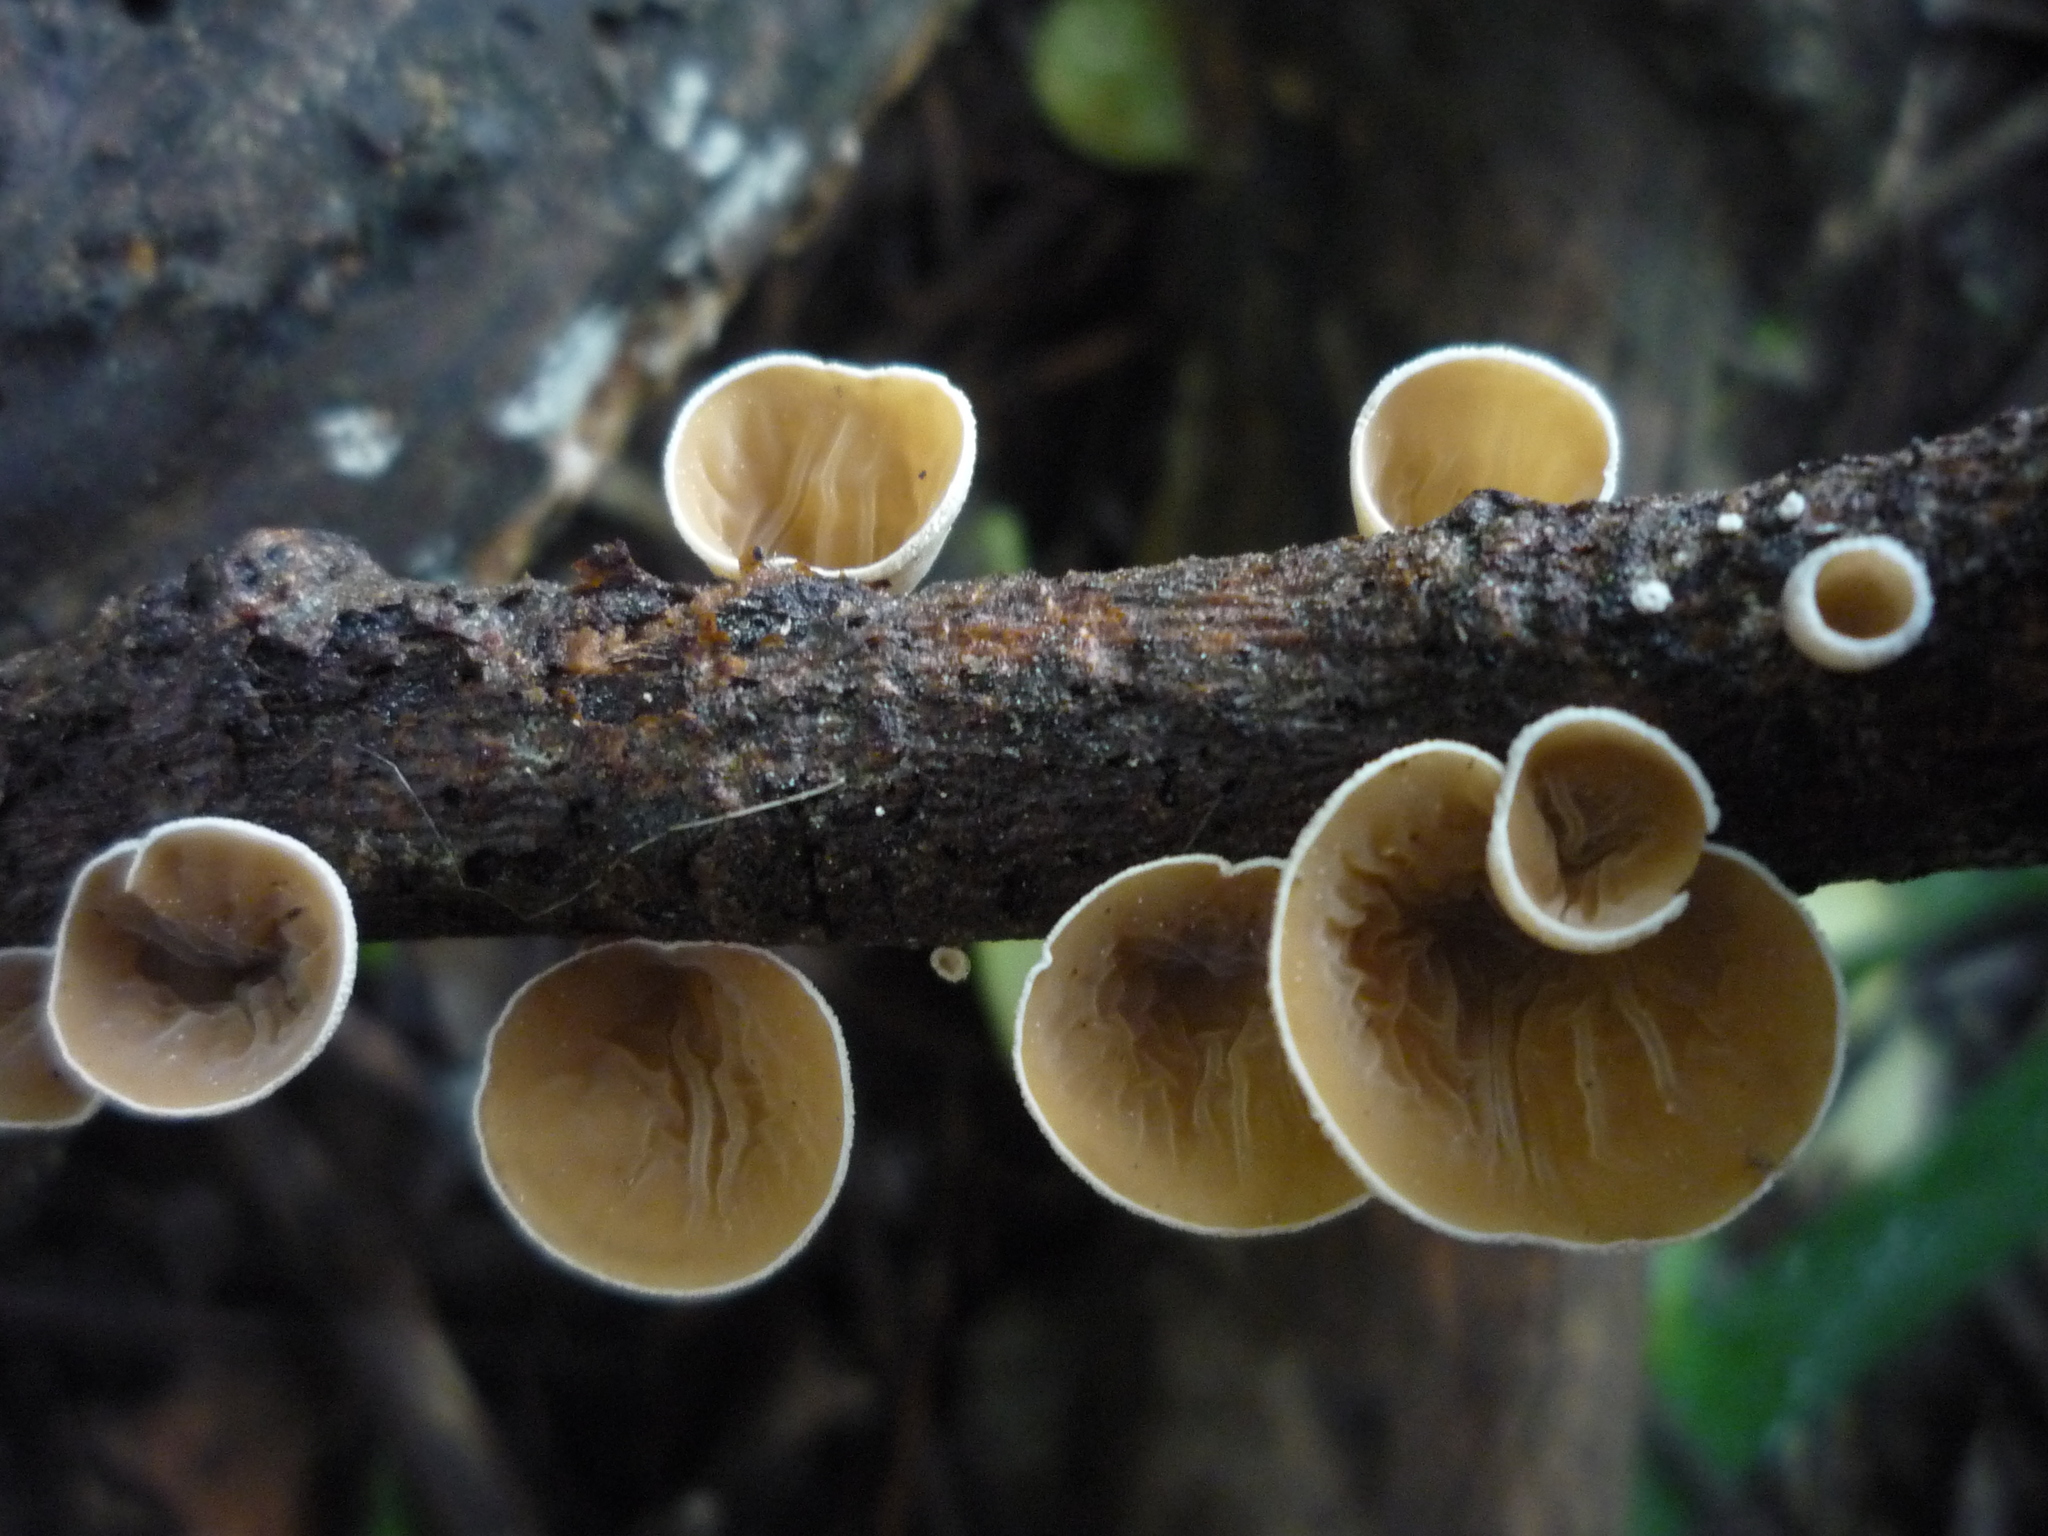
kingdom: Fungi
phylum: Basidiomycota
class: Agaricomycetes
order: Agaricales
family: Schizophyllaceae
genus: Schizophyllum
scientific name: Schizophyllum amplum
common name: Poplar bells
